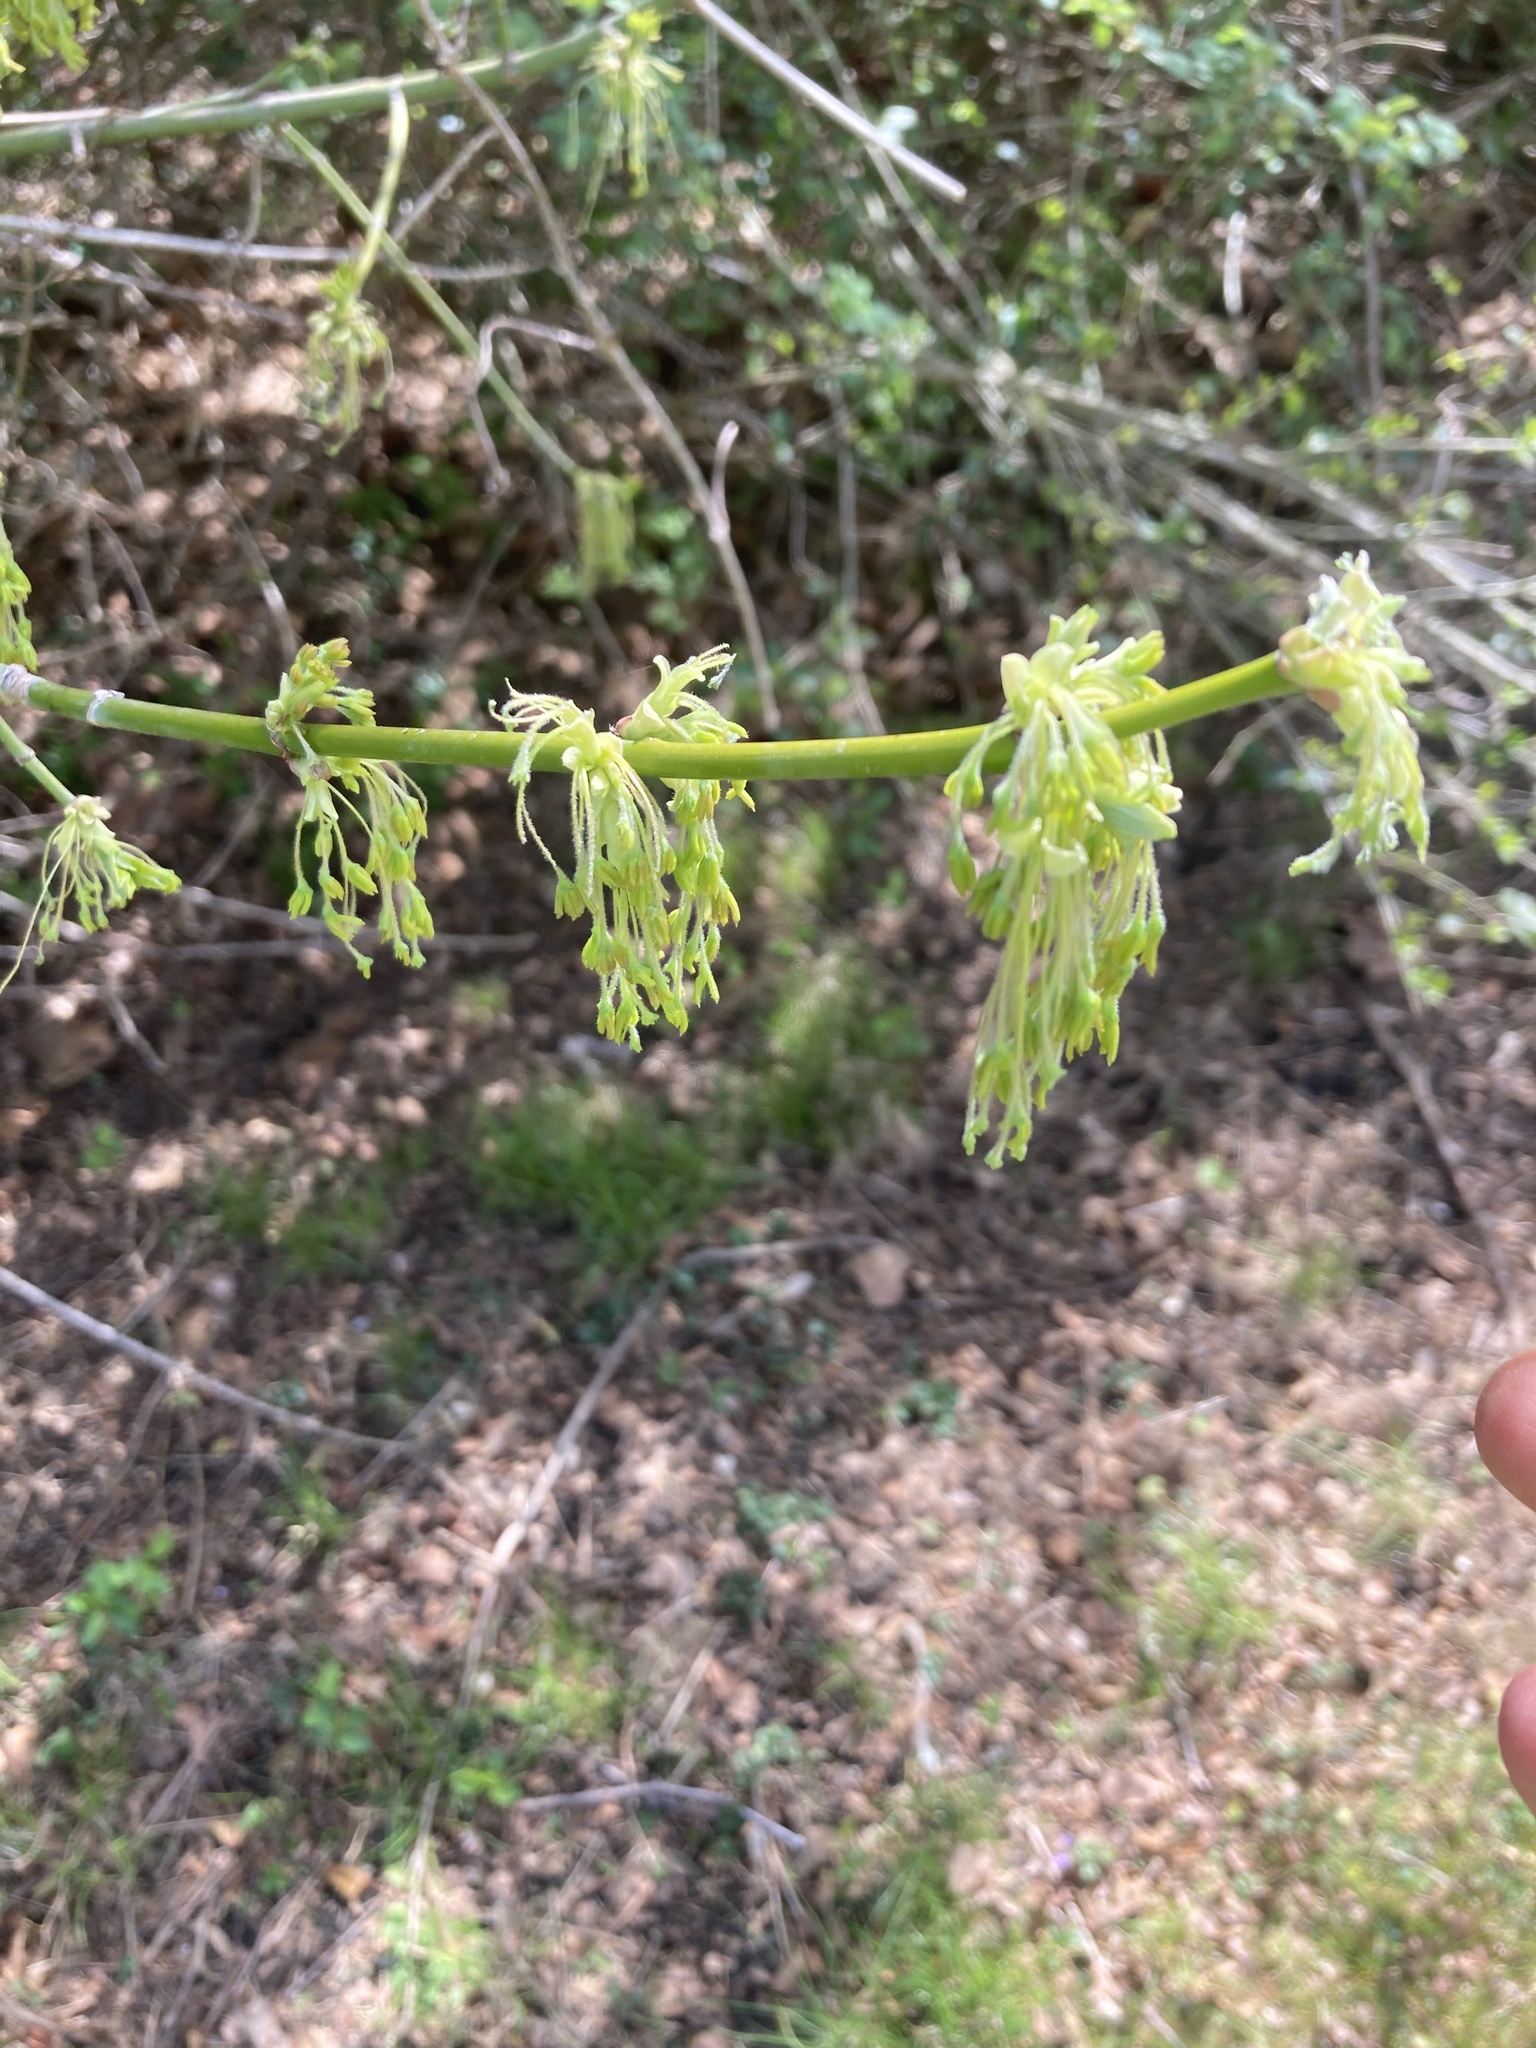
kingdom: Plantae
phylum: Tracheophyta
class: Magnoliopsida
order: Sapindales
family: Sapindaceae
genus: Acer
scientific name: Acer negundo
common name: Ashleaf maple
